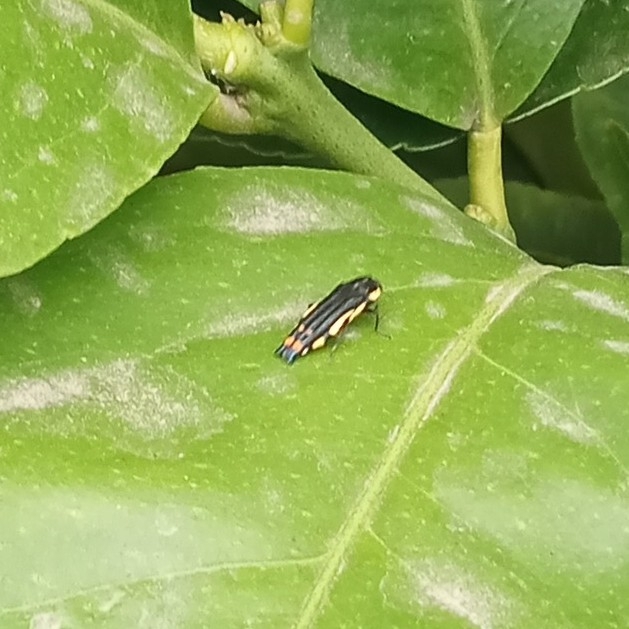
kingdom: Animalia
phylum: Arthropoda
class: Insecta
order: Coleoptera
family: Buprestidae
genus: Agrilus
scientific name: Agrilus chrysostictus
